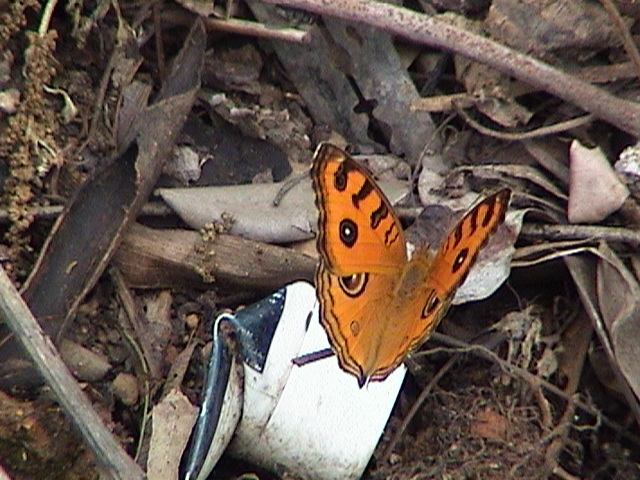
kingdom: Animalia
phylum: Arthropoda
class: Insecta
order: Lepidoptera
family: Nymphalidae
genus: Junonia
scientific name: Junonia almana
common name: Peacock pansy
